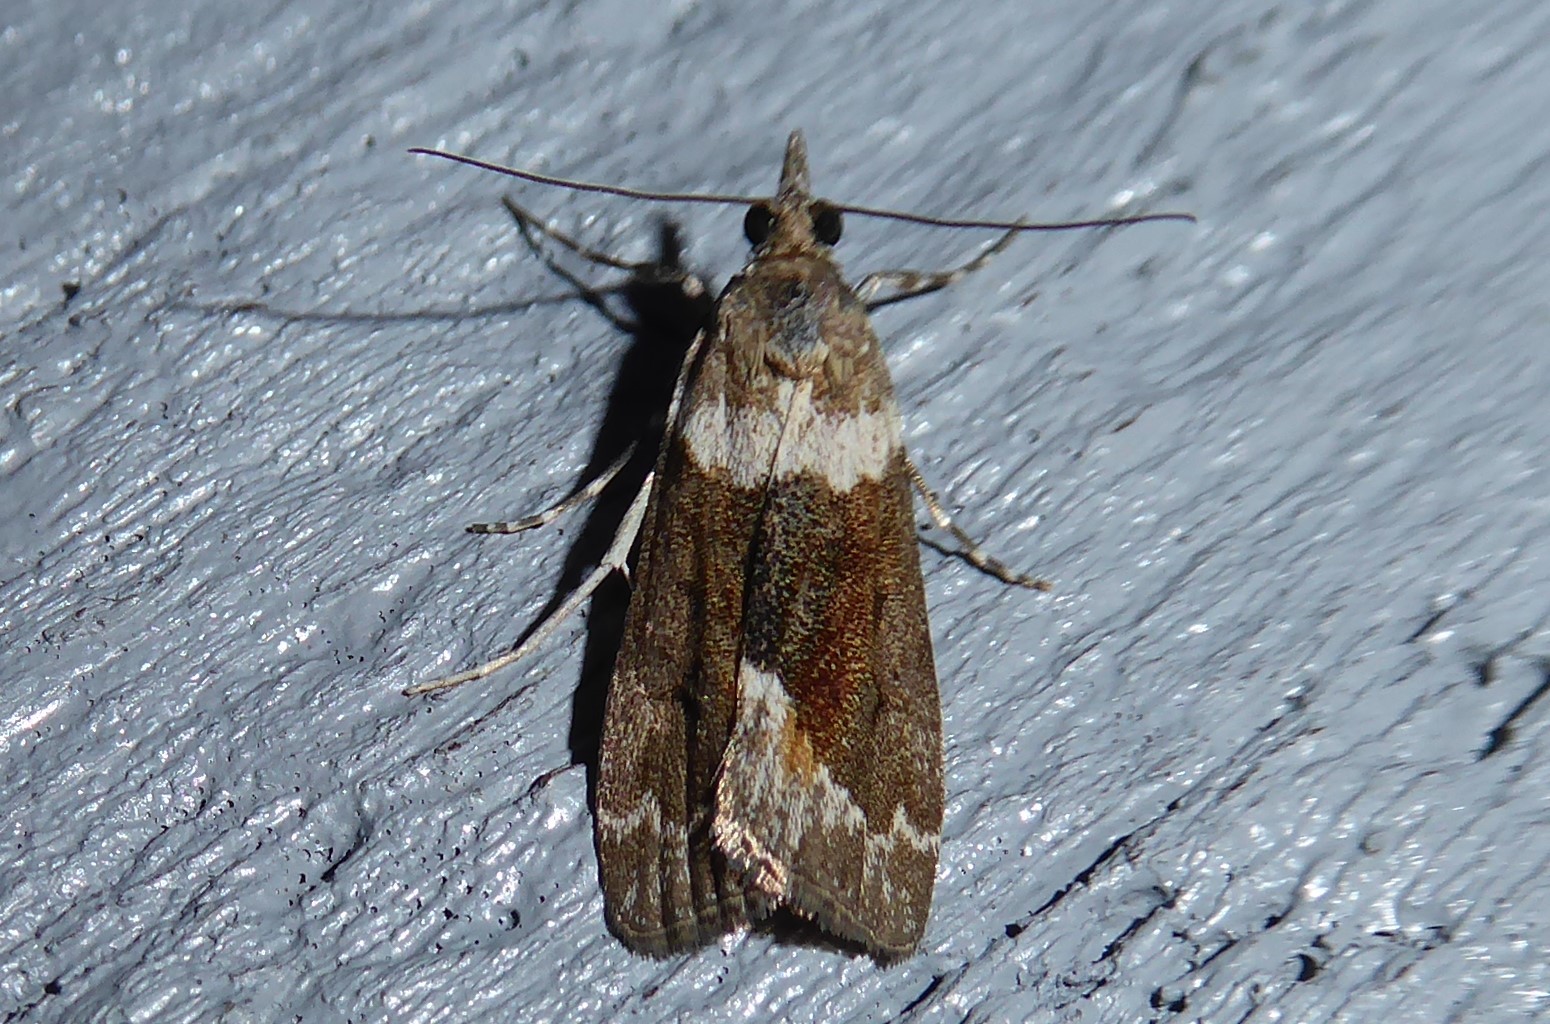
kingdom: Animalia
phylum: Arthropoda
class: Insecta
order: Lepidoptera
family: Crambidae
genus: Eudonia
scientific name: Eudonia submarginalis
